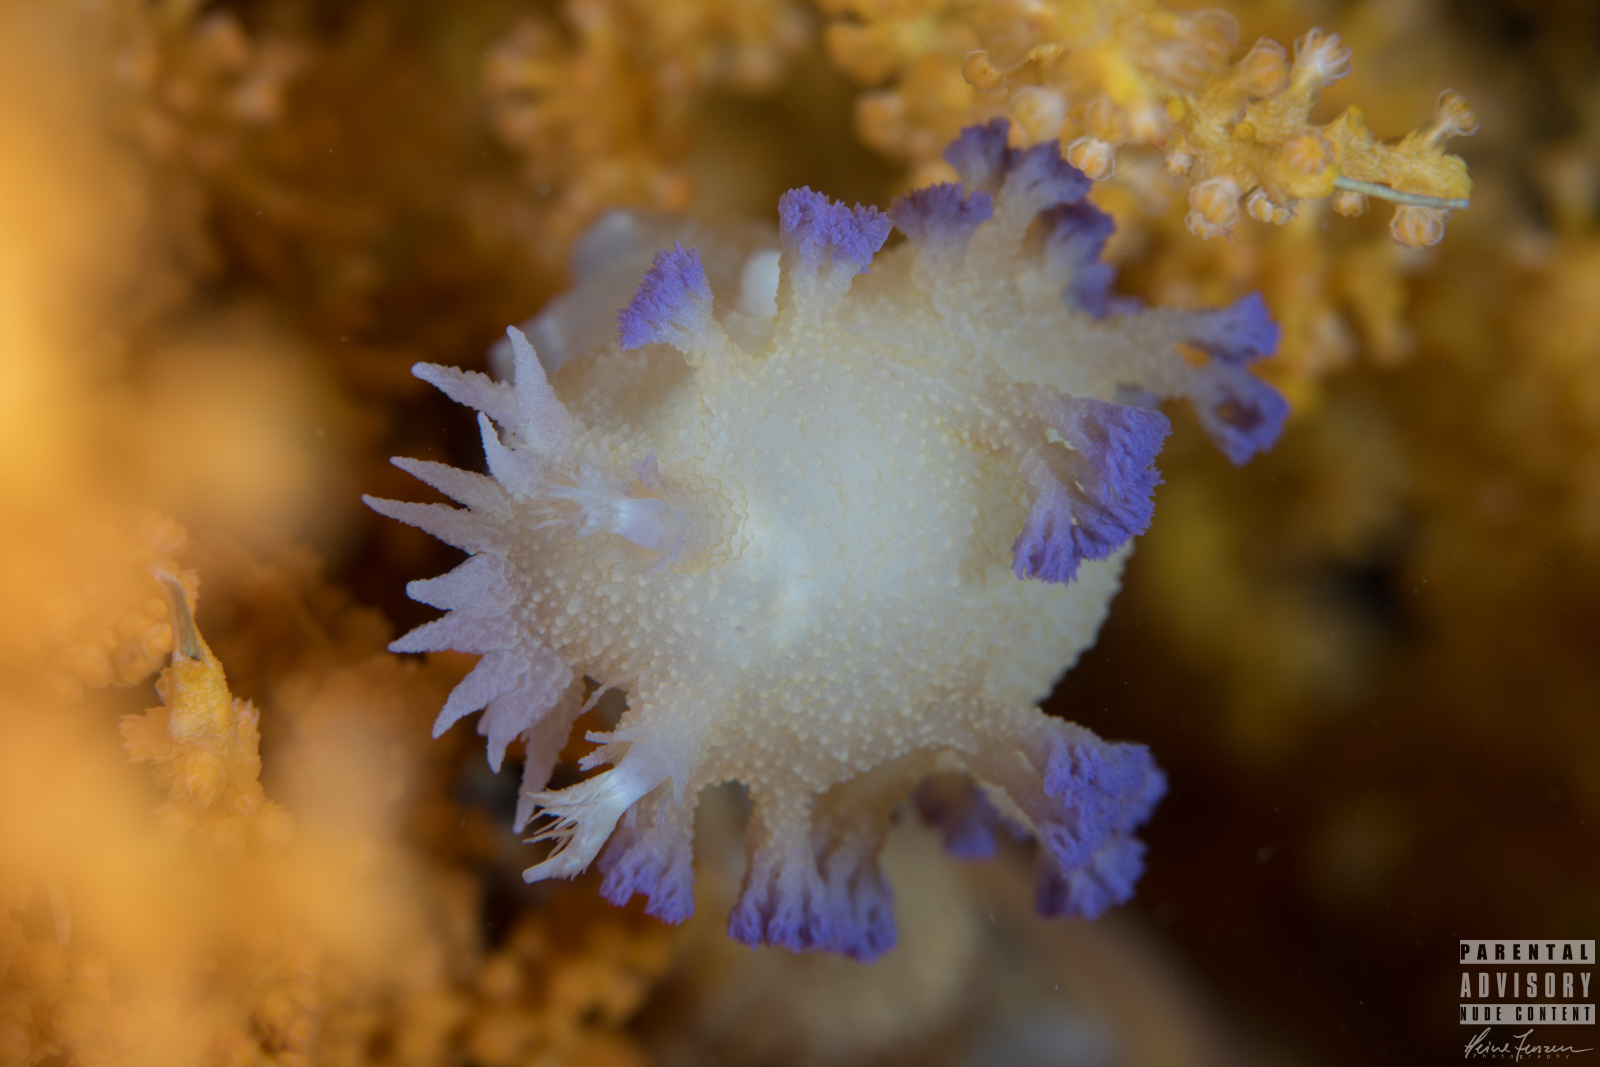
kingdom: Animalia
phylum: Mollusca
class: Gastropoda
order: Nudibranchia
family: Tritoniidae
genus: Tritonia
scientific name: Tritonia griegi
